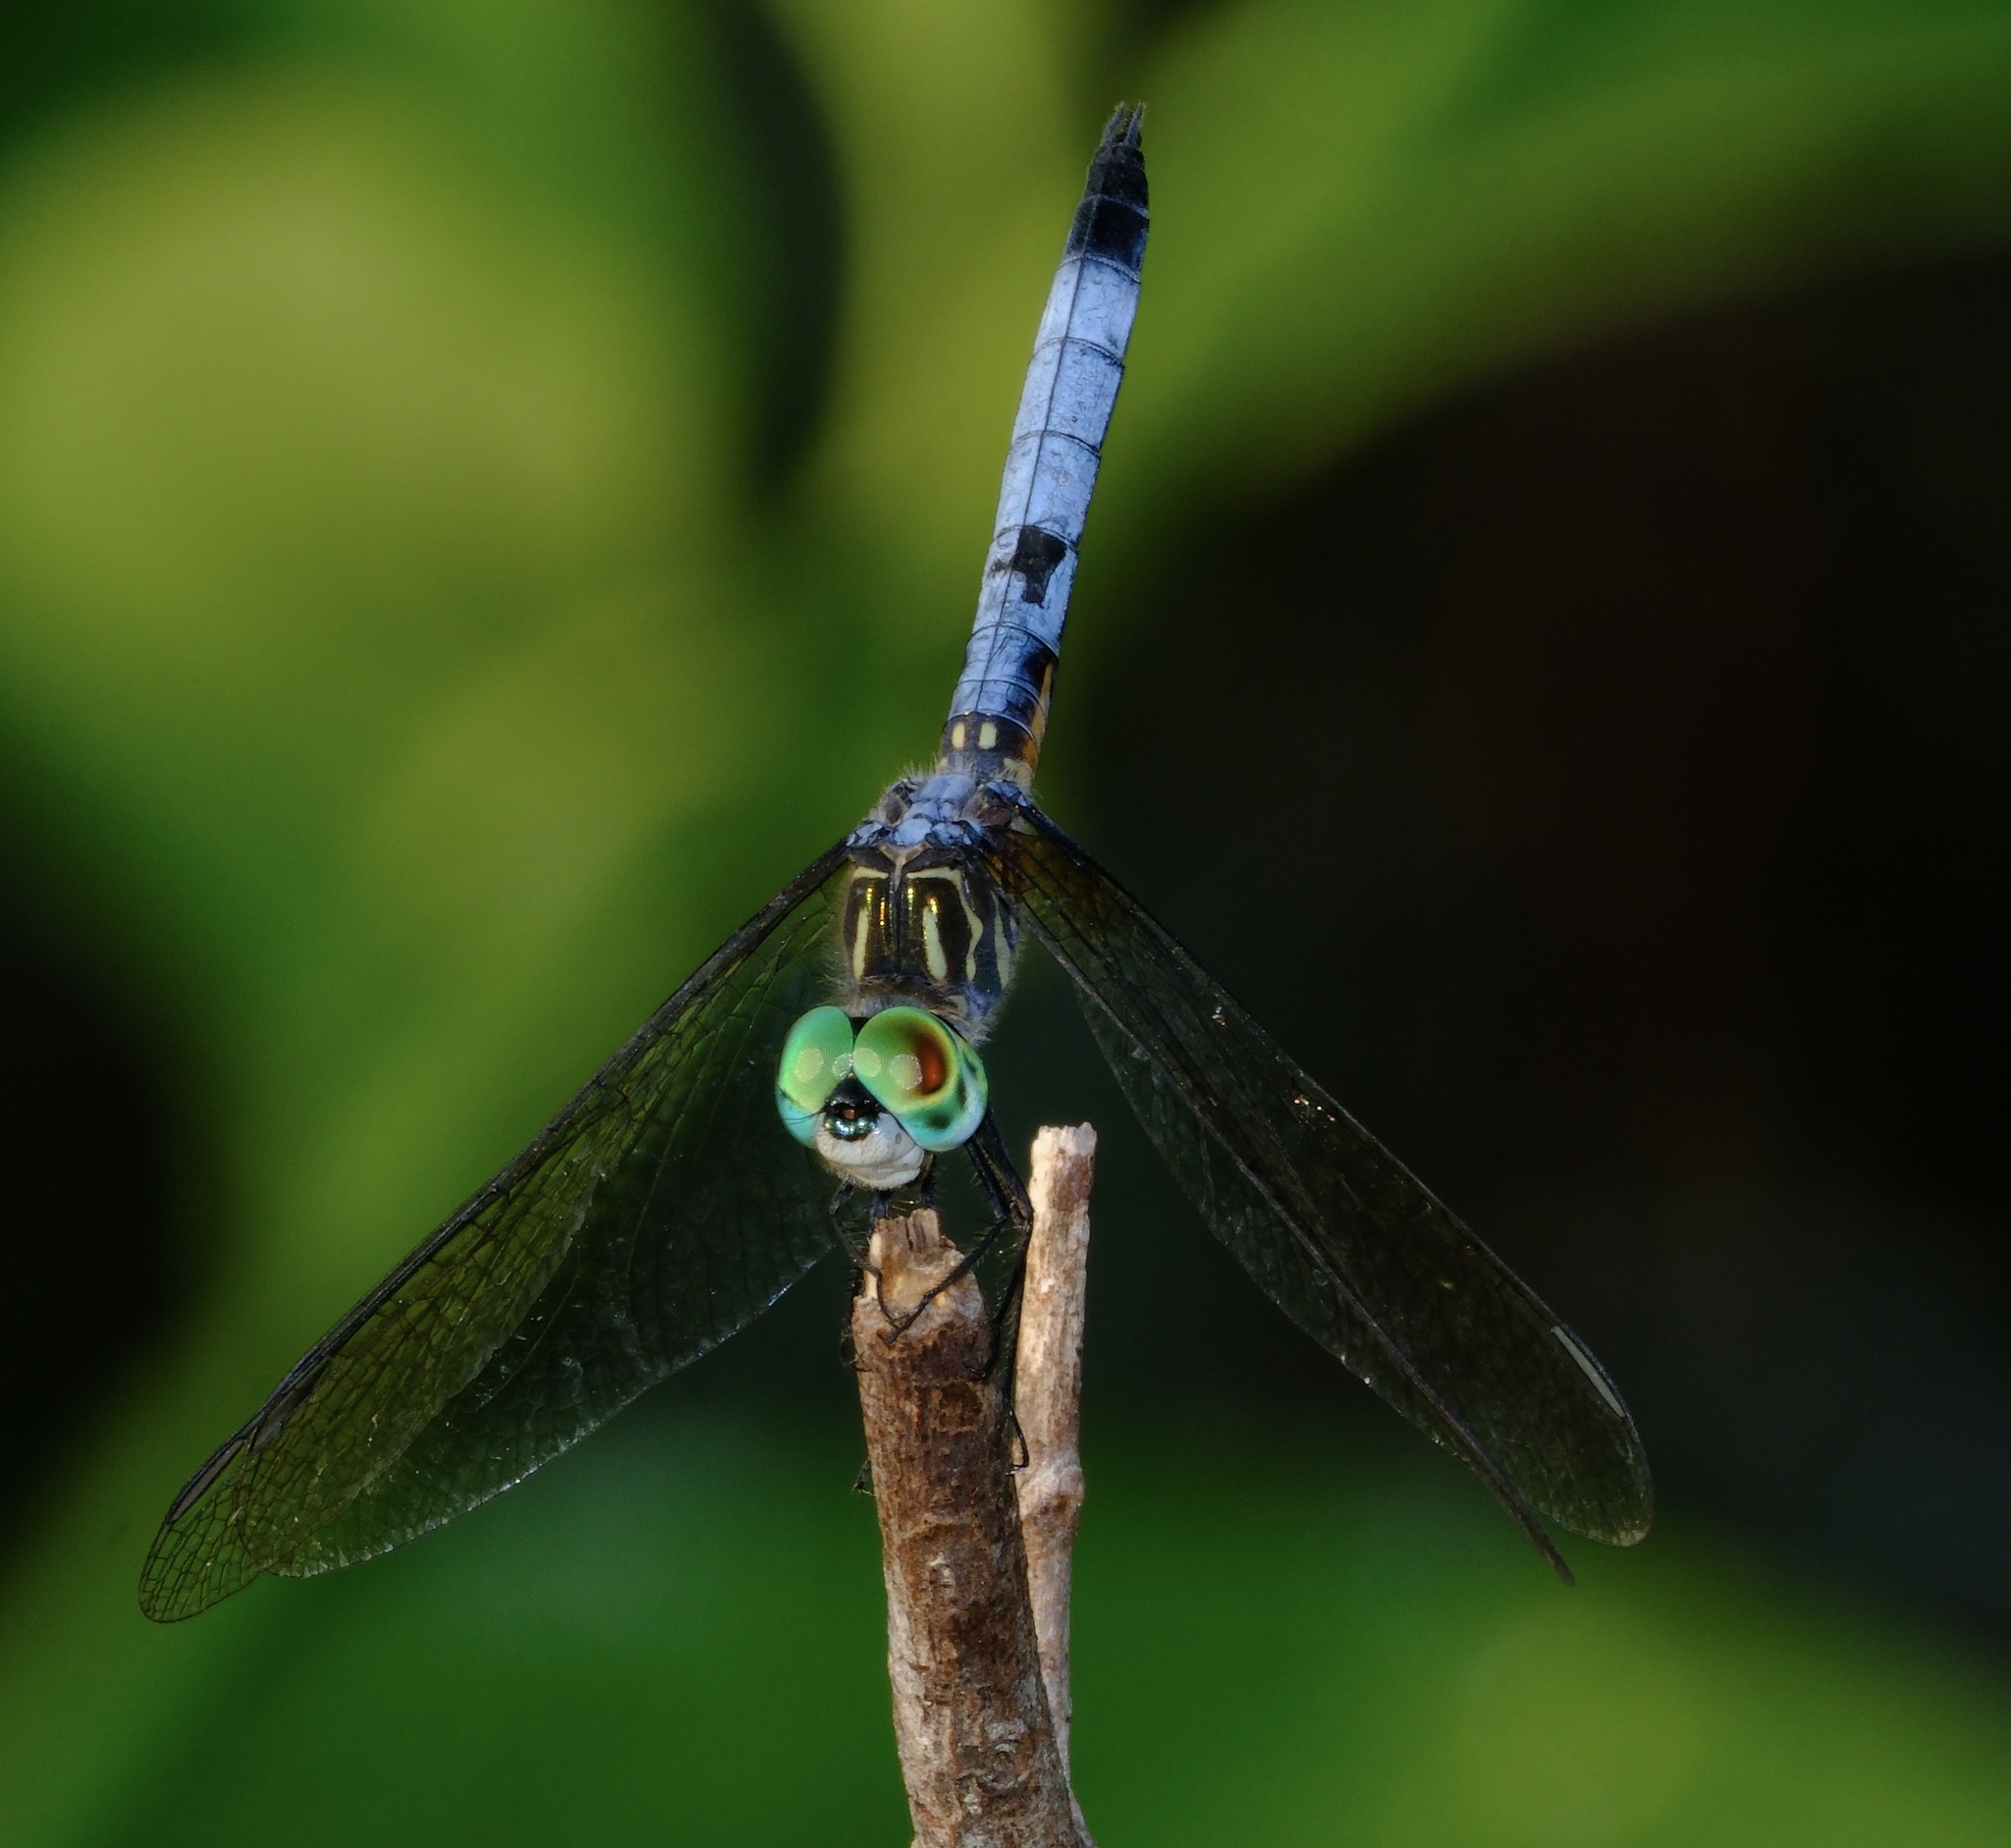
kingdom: Animalia
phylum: Arthropoda
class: Insecta
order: Odonata
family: Libellulidae
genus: Pachydiplax
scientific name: Pachydiplax longipennis
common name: Blue dasher
